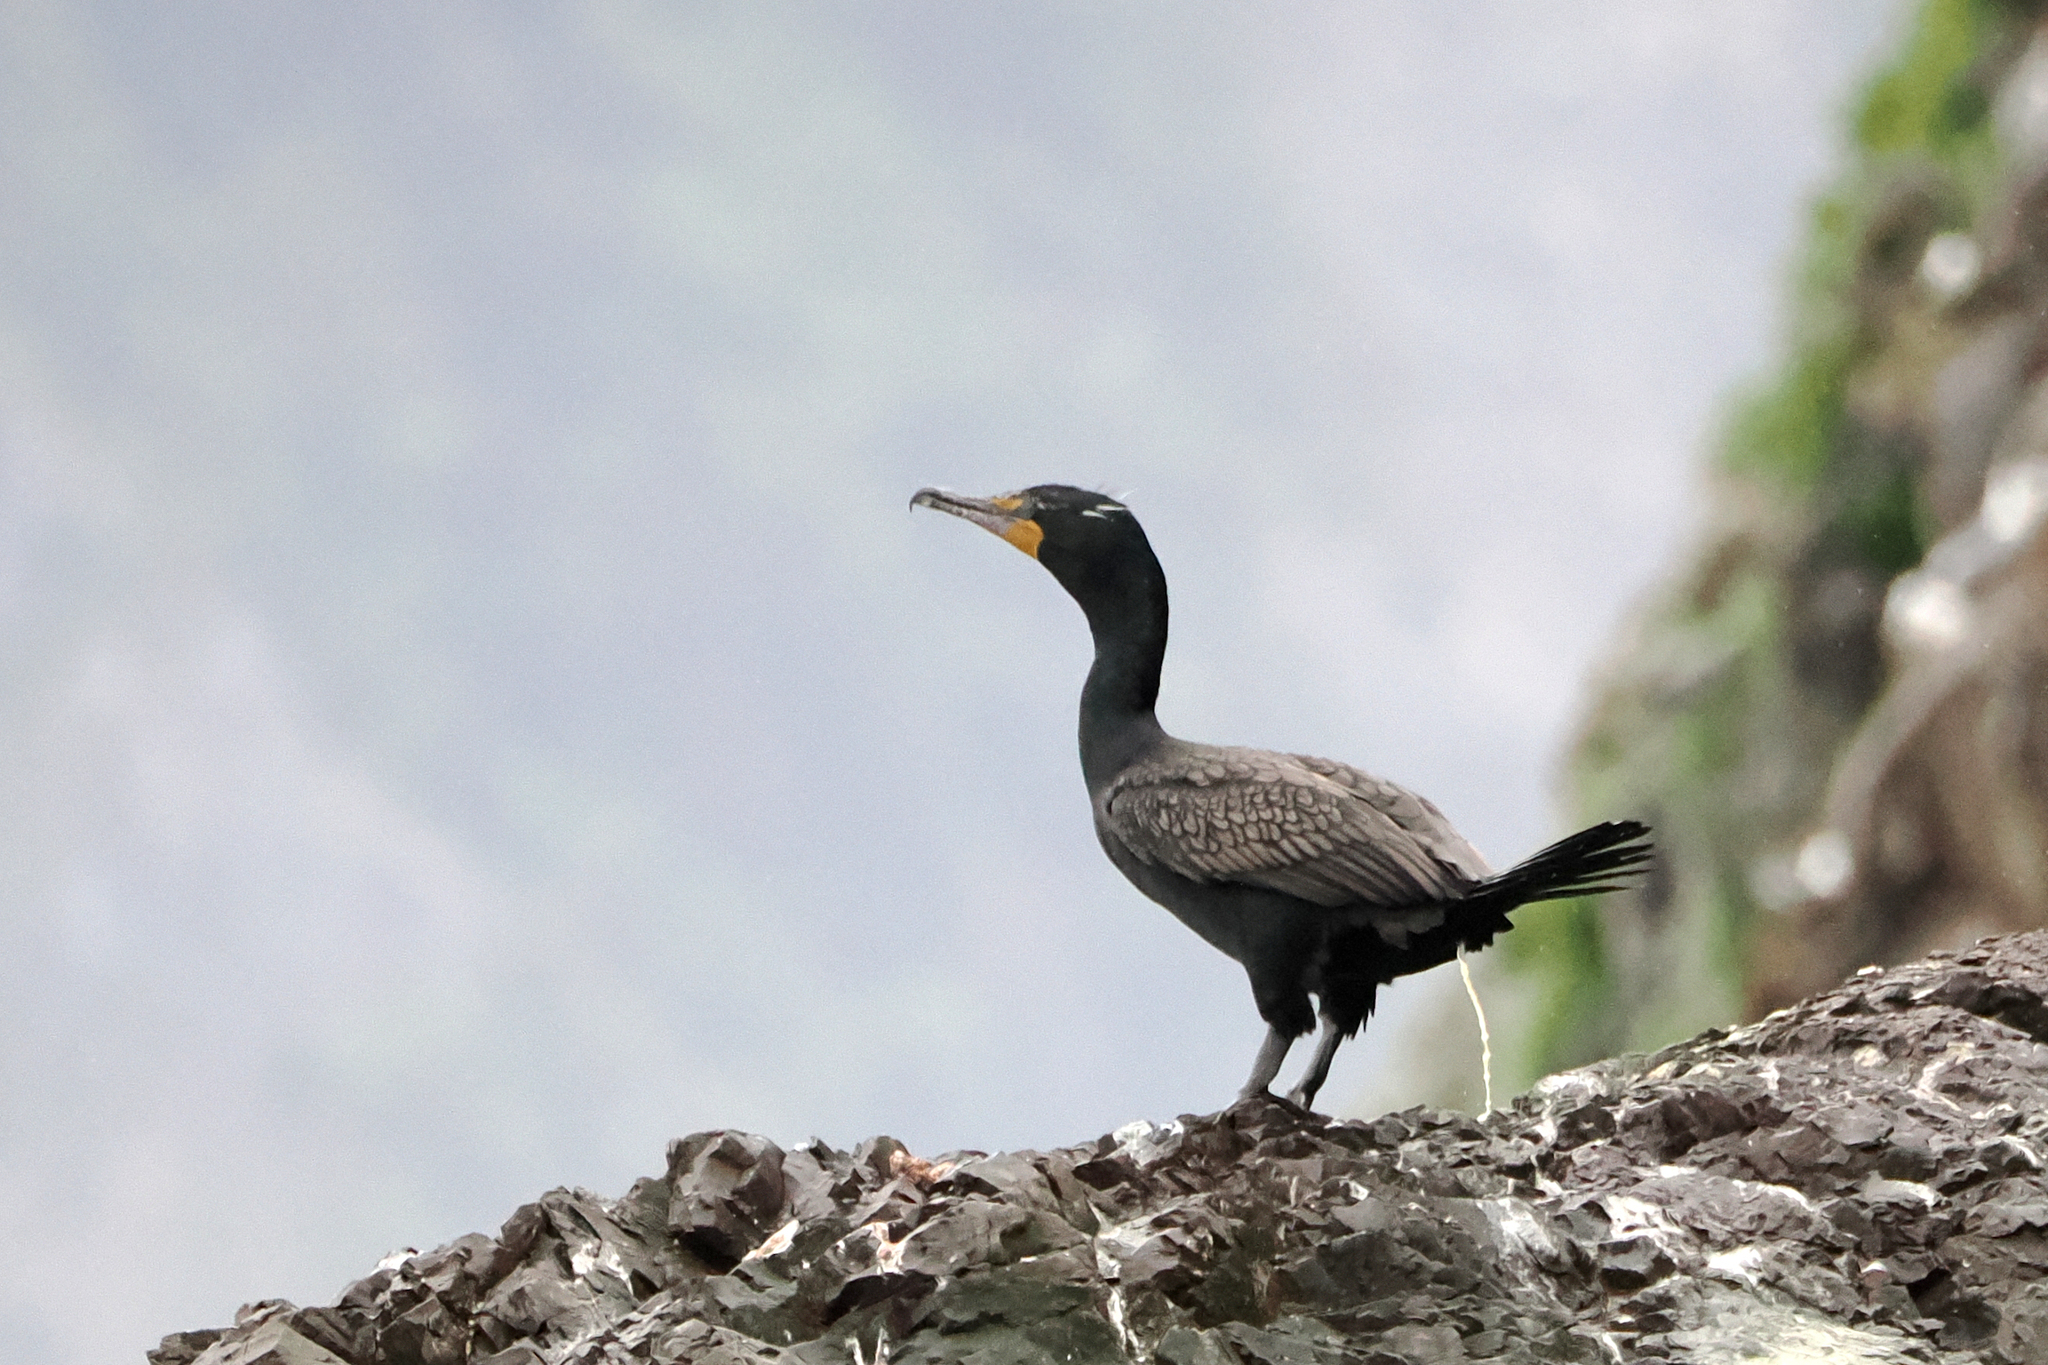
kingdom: Animalia
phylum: Chordata
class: Aves
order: Suliformes
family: Phalacrocoracidae
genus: Phalacrocorax
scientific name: Phalacrocorax auritus
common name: Double-crested cormorant
